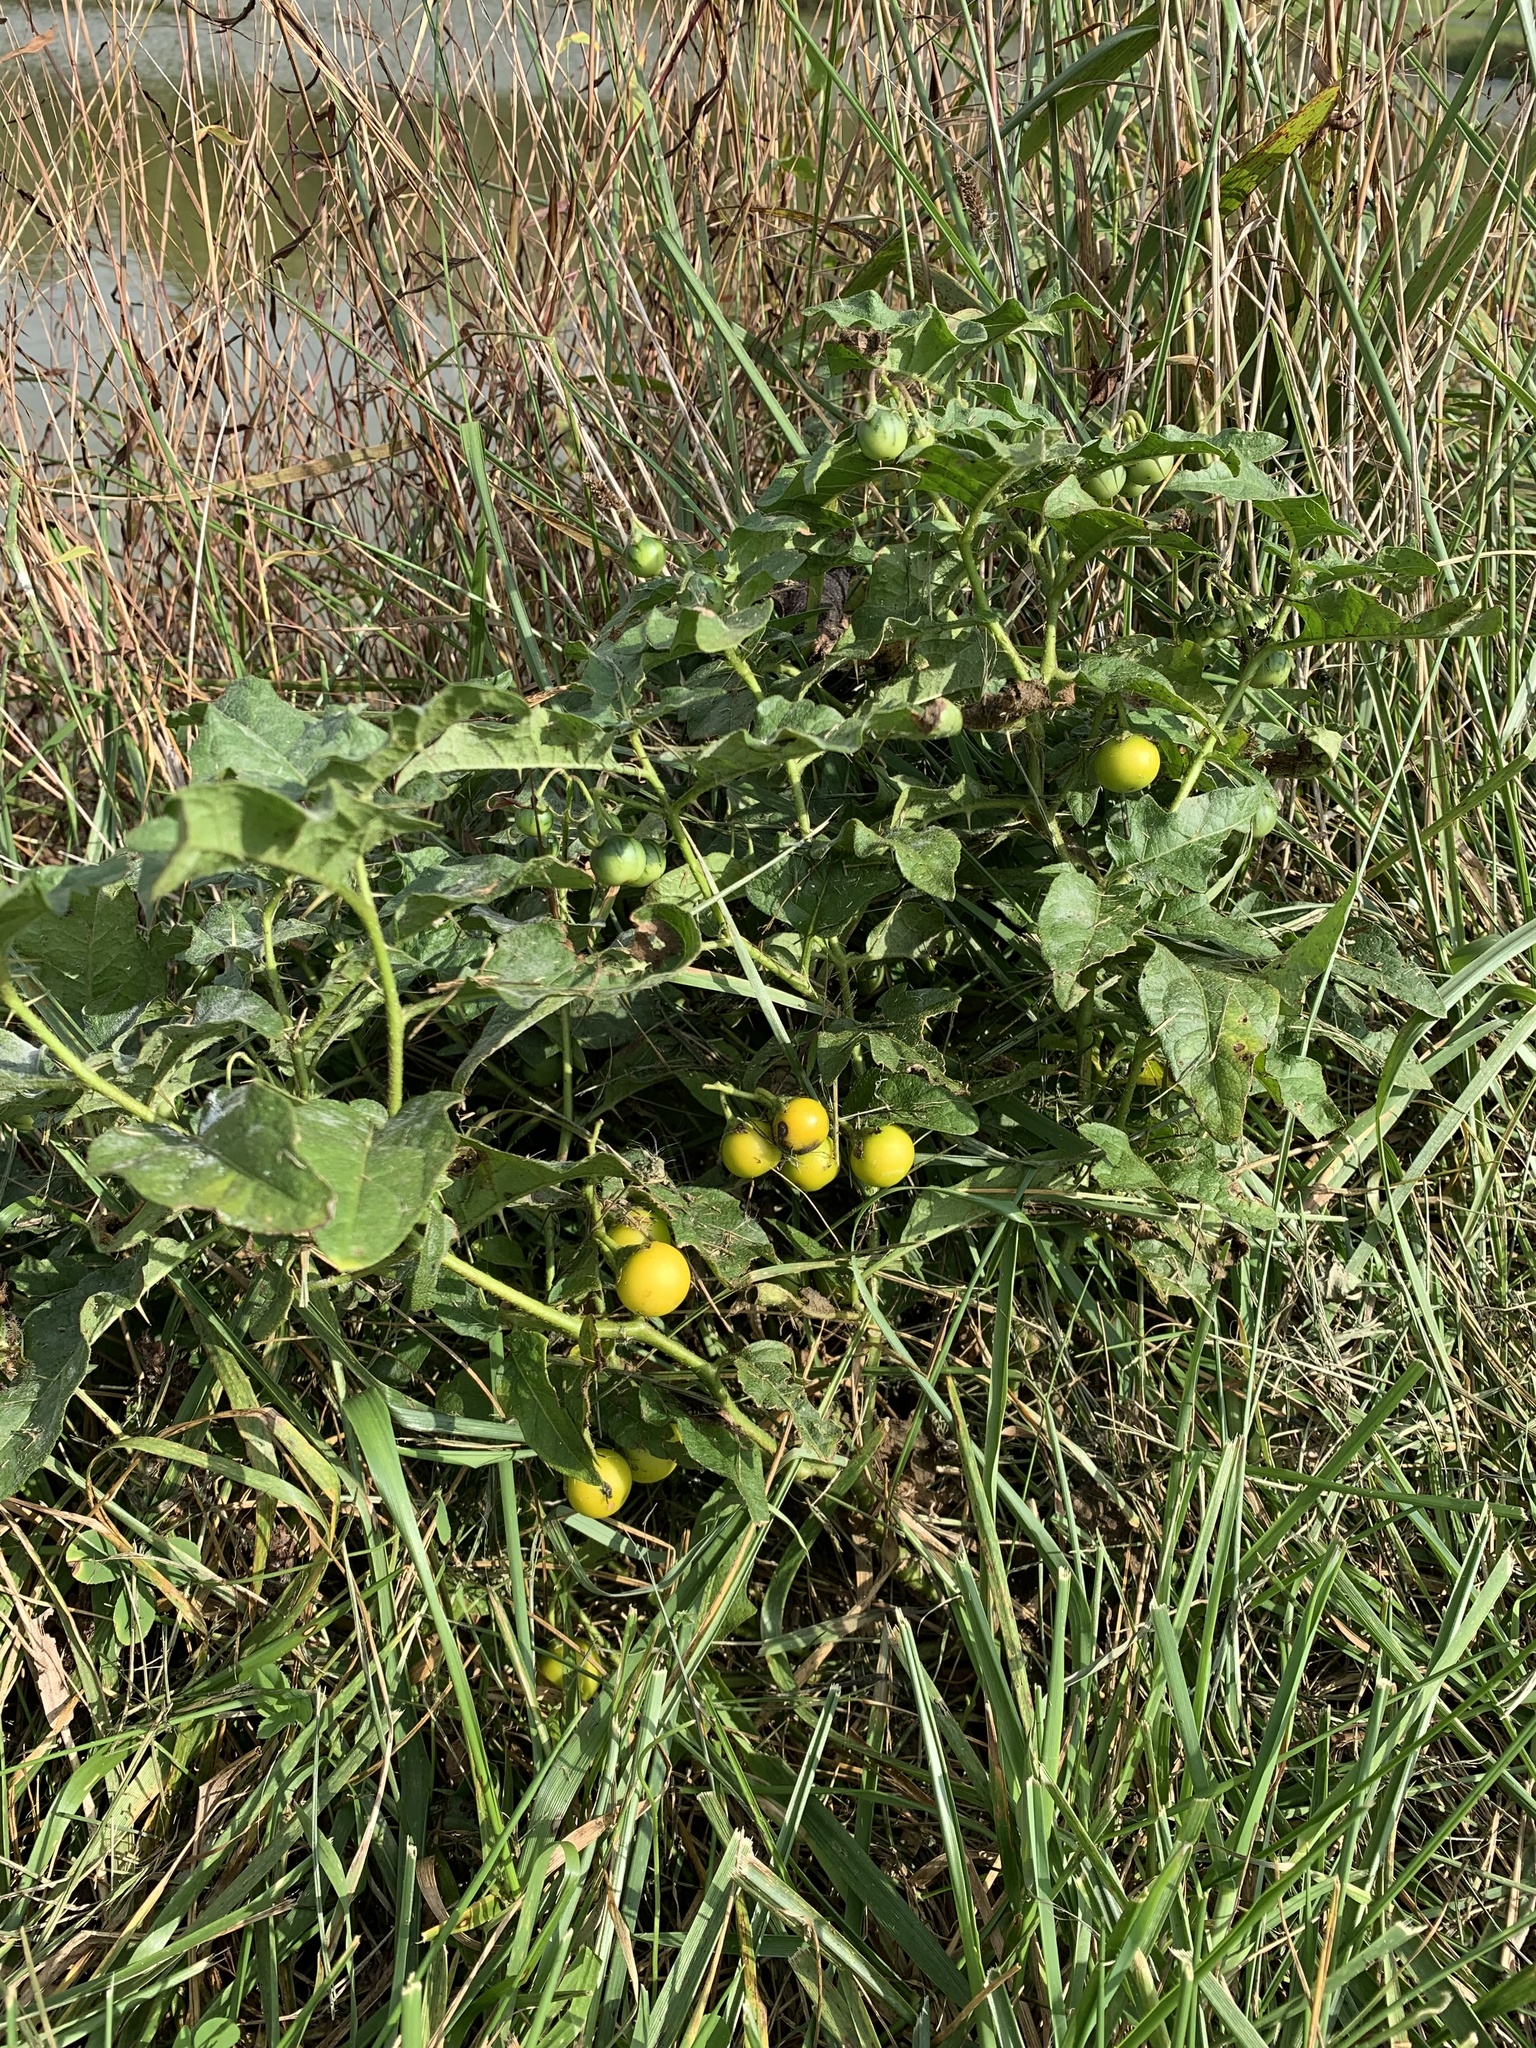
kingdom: Plantae
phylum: Tracheophyta
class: Magnoliopsida
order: Solanales
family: Solanaceae
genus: Solanum
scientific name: Solanum carolinense
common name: Horse-nettle
